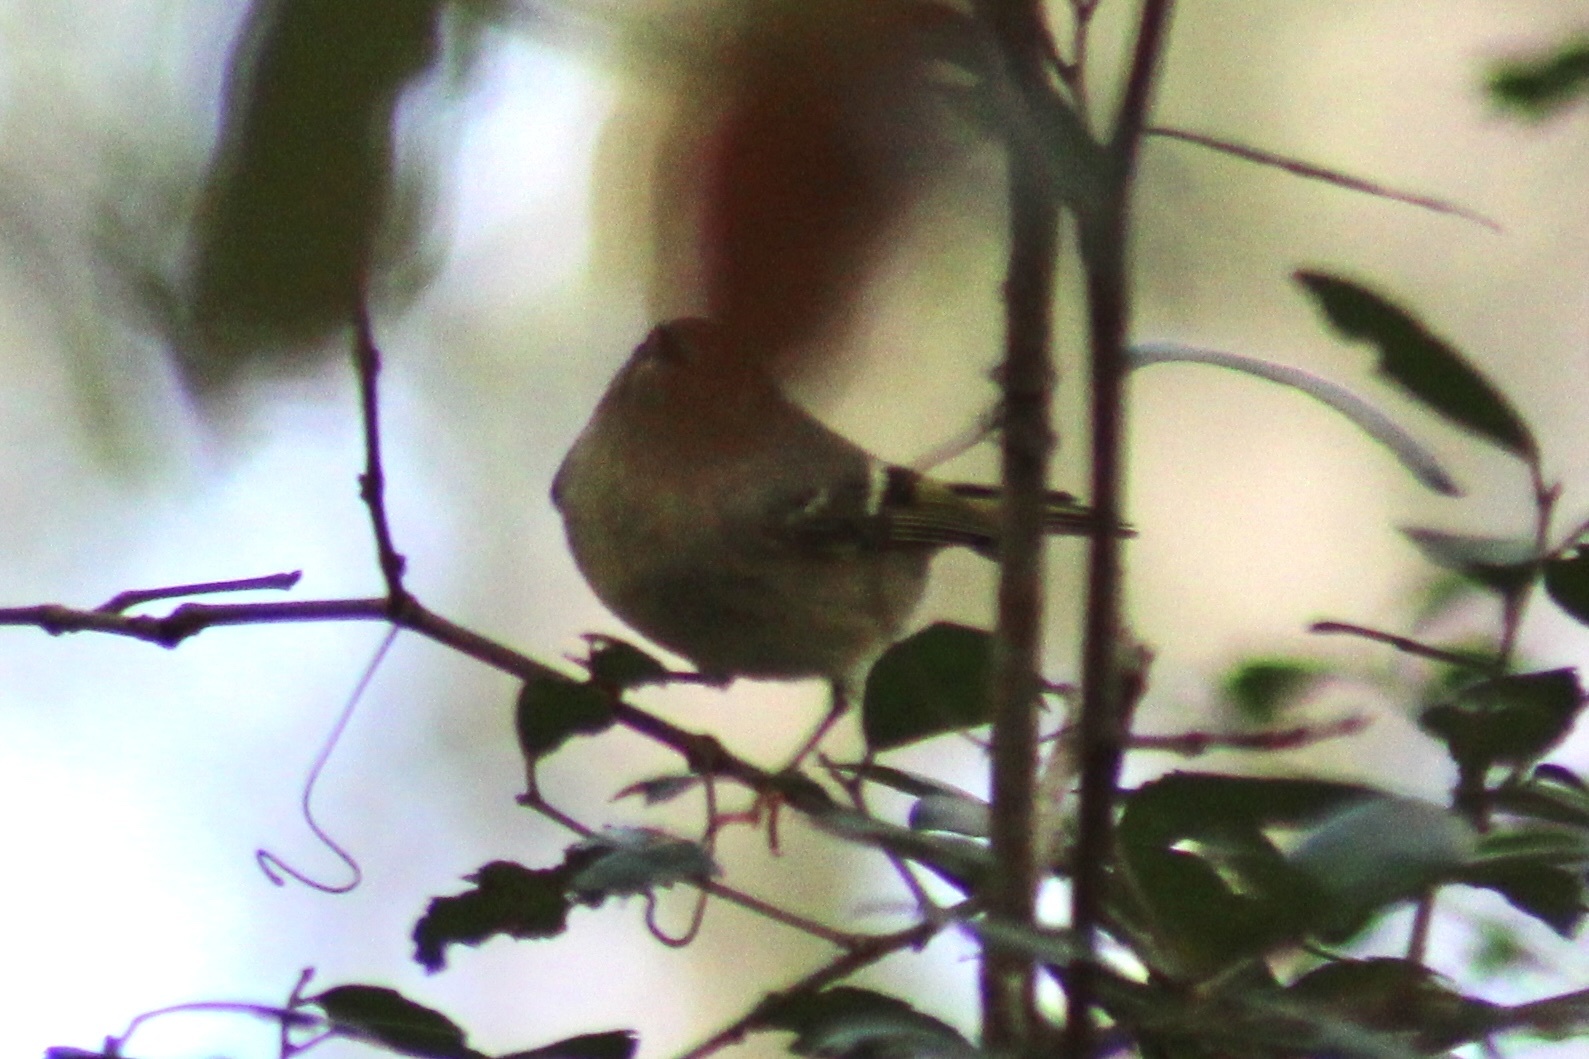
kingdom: Animalia
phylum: Chordata
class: Aves
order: Passeriformes
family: Regulidae
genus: Regulus
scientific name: Regulus calendula
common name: Ruby-crowned kinglet
